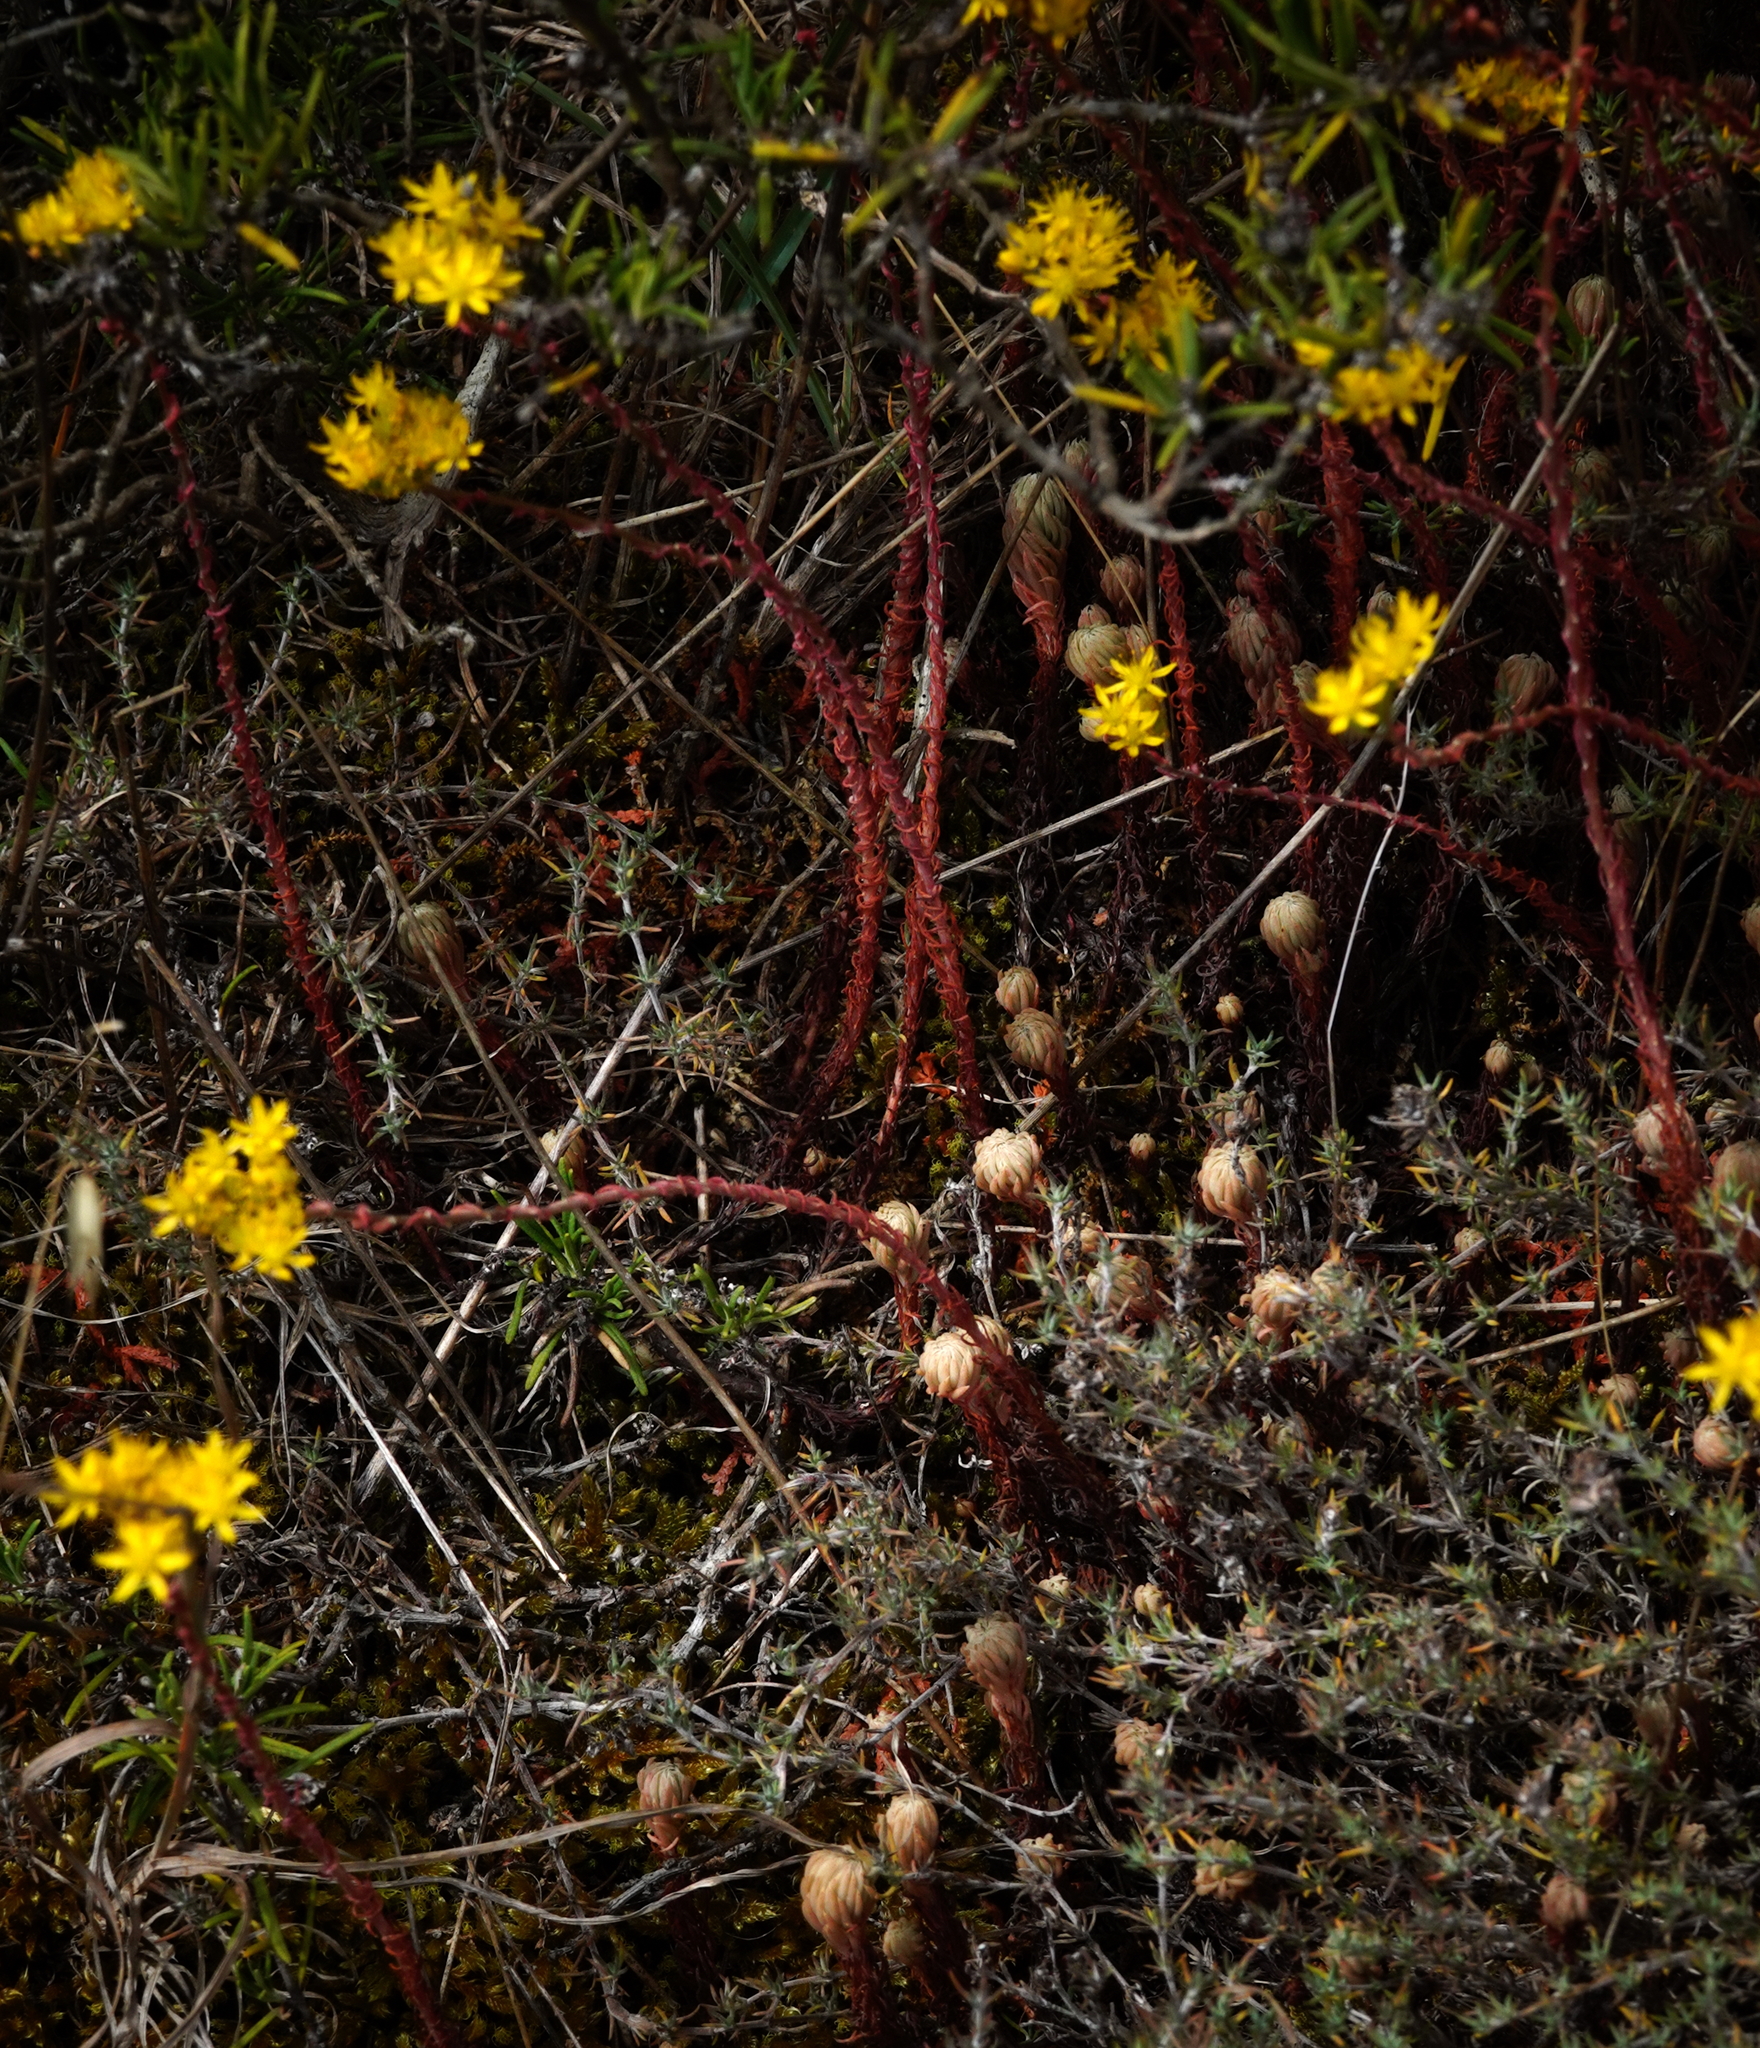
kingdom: Plantae
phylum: Tracheophyta
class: Magnoliopsida
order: Saxifragales
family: Crassulaceae
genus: Petrosedum
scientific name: Petrosedum forsterianum
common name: Forster's stonecrop
